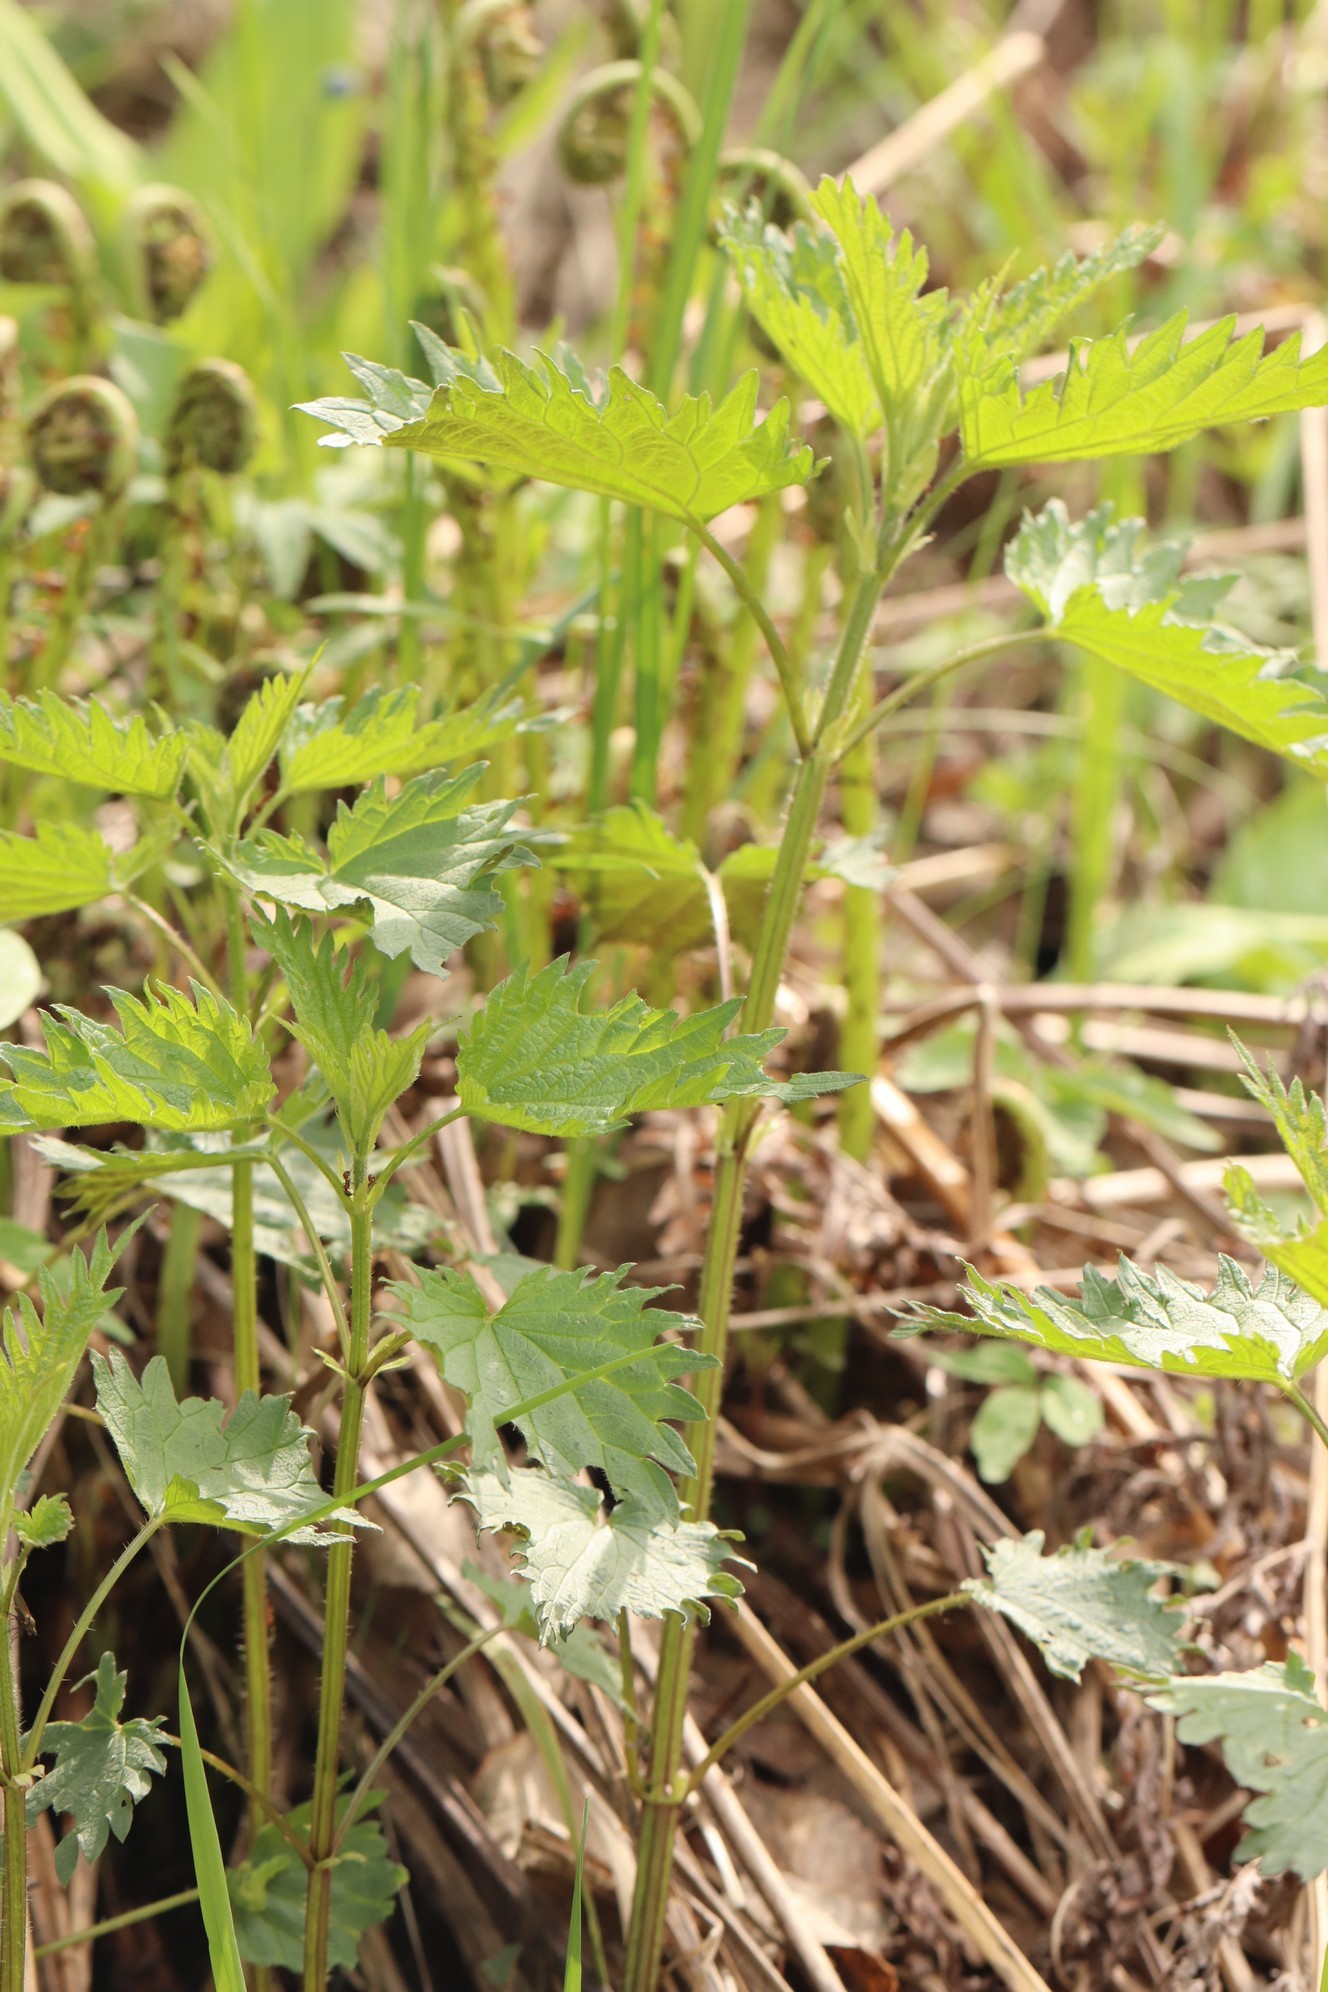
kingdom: Plantae
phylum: Tracheophyta
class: Magnoliopsida
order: Rosales
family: Urticaceae
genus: Urtica
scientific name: Urtica dioica
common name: Common nettle
